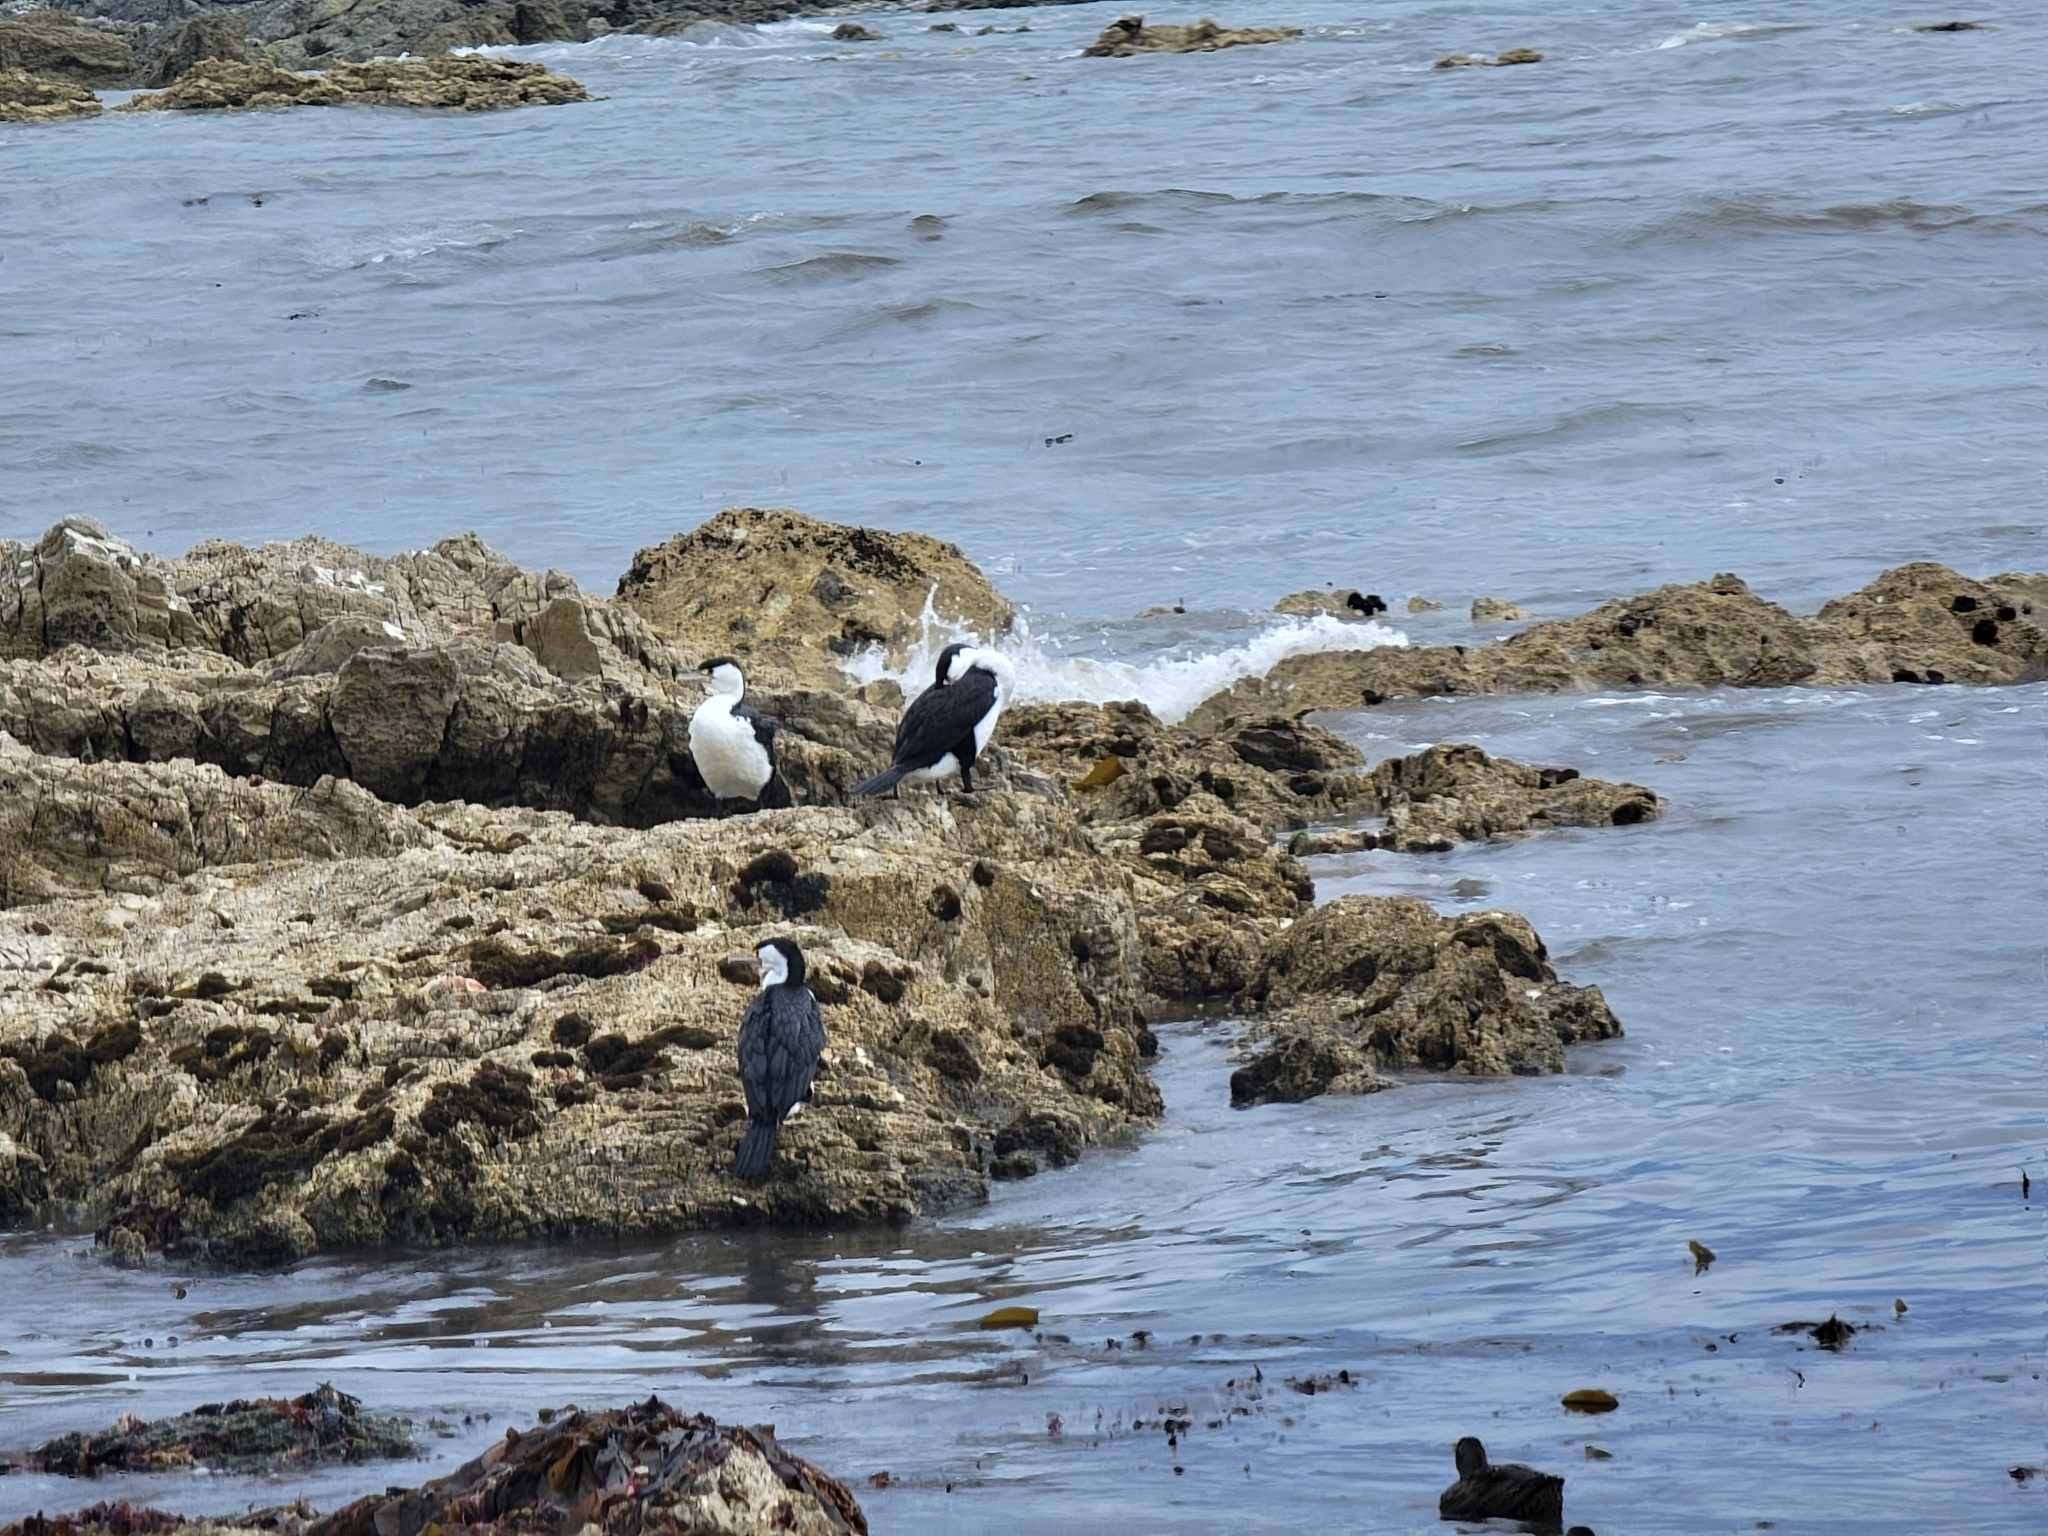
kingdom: Animalia
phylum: Chordata
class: Aves
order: Suliformes
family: Phalacrocoracidae
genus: Microcarbo
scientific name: Microcarbo melanoleucos
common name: Little pied cormorant
